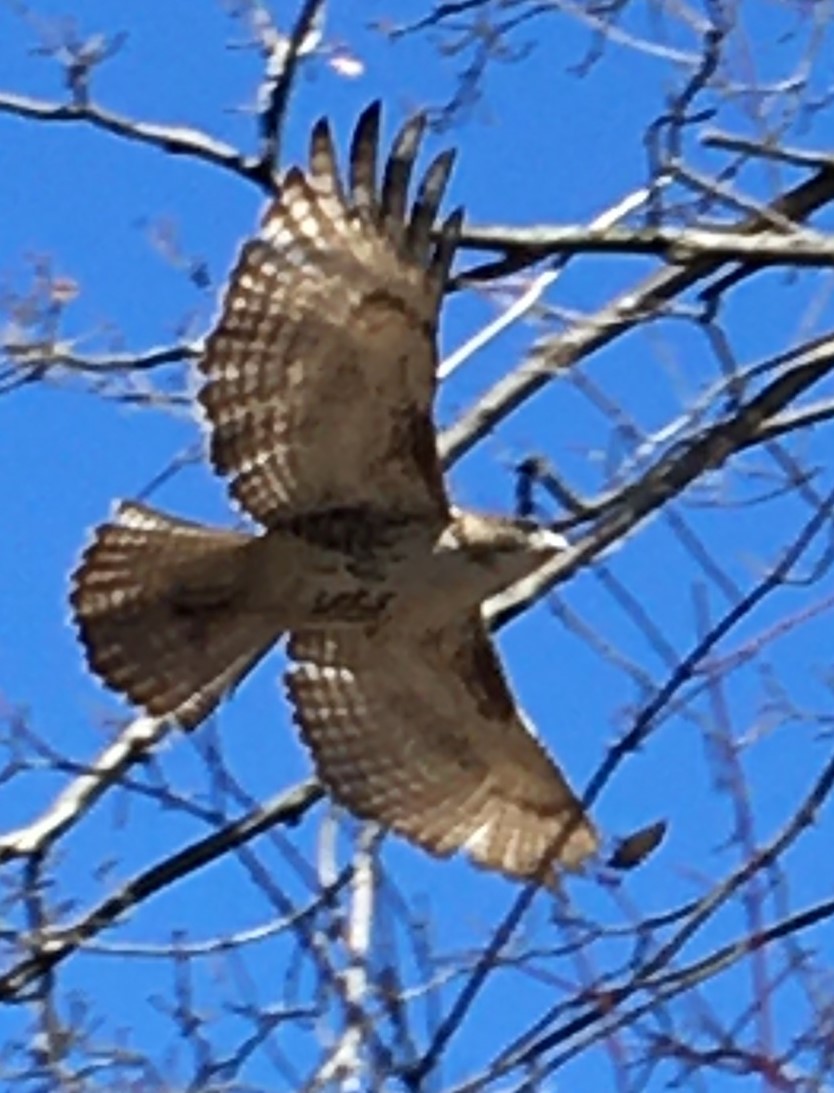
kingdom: Animalia
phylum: Chordata
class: Aves
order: Accipitriformes
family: Accipitridae
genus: Buteo
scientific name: Buteo jamaicensis
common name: Red-tailed hawk
